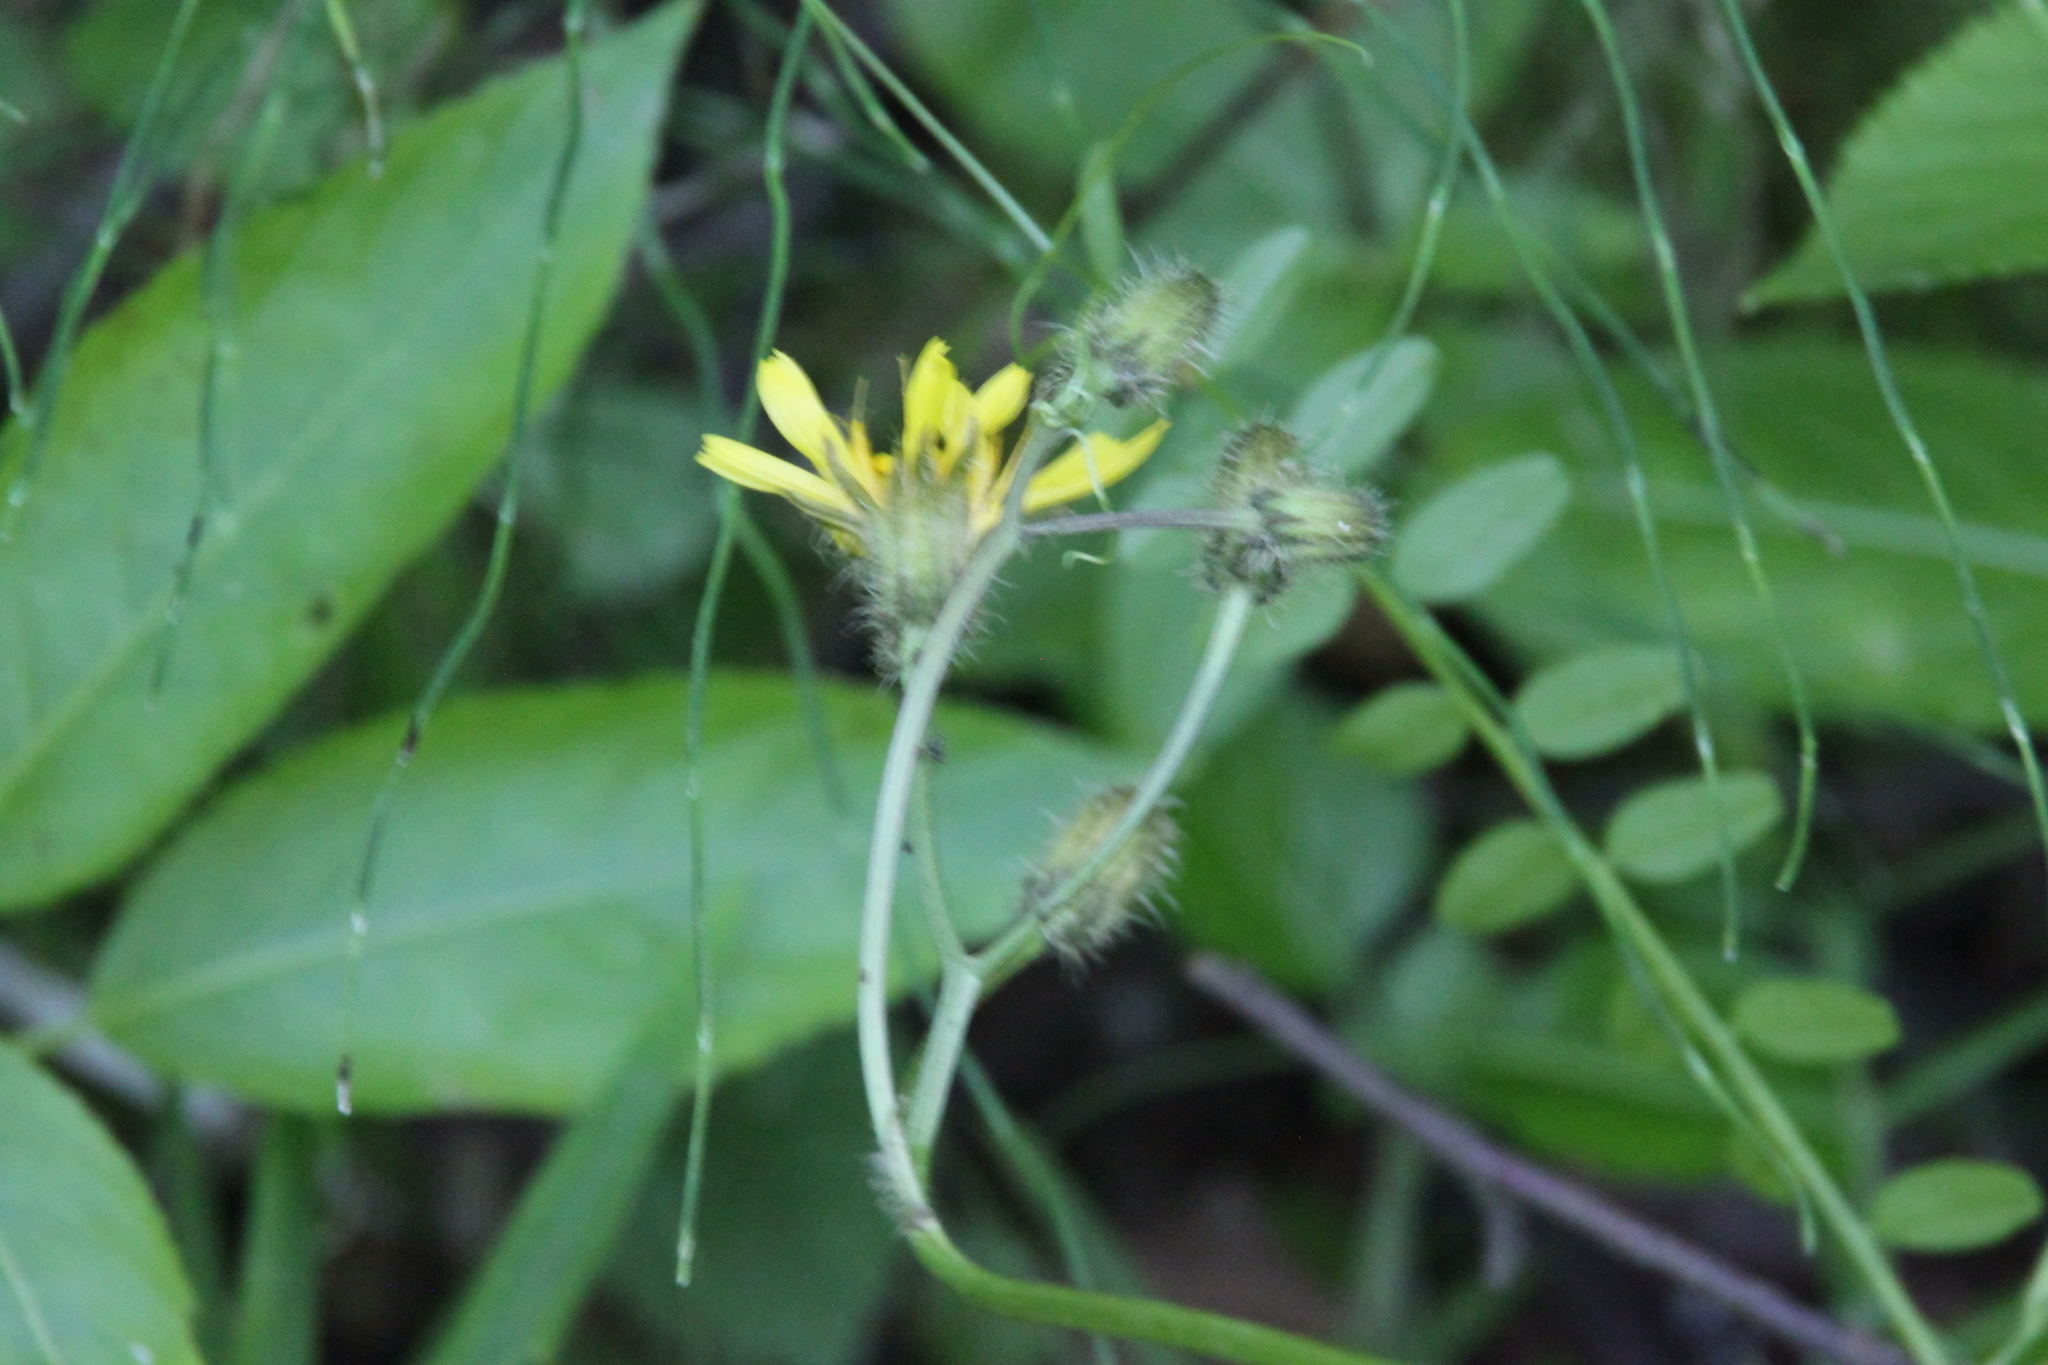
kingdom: Plantae
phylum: Tracheophyta
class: Magnoliopsida
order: Asterales
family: Asteraceae
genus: Crepis
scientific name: Crepis paludosa
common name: Marsh hawk's-beard
